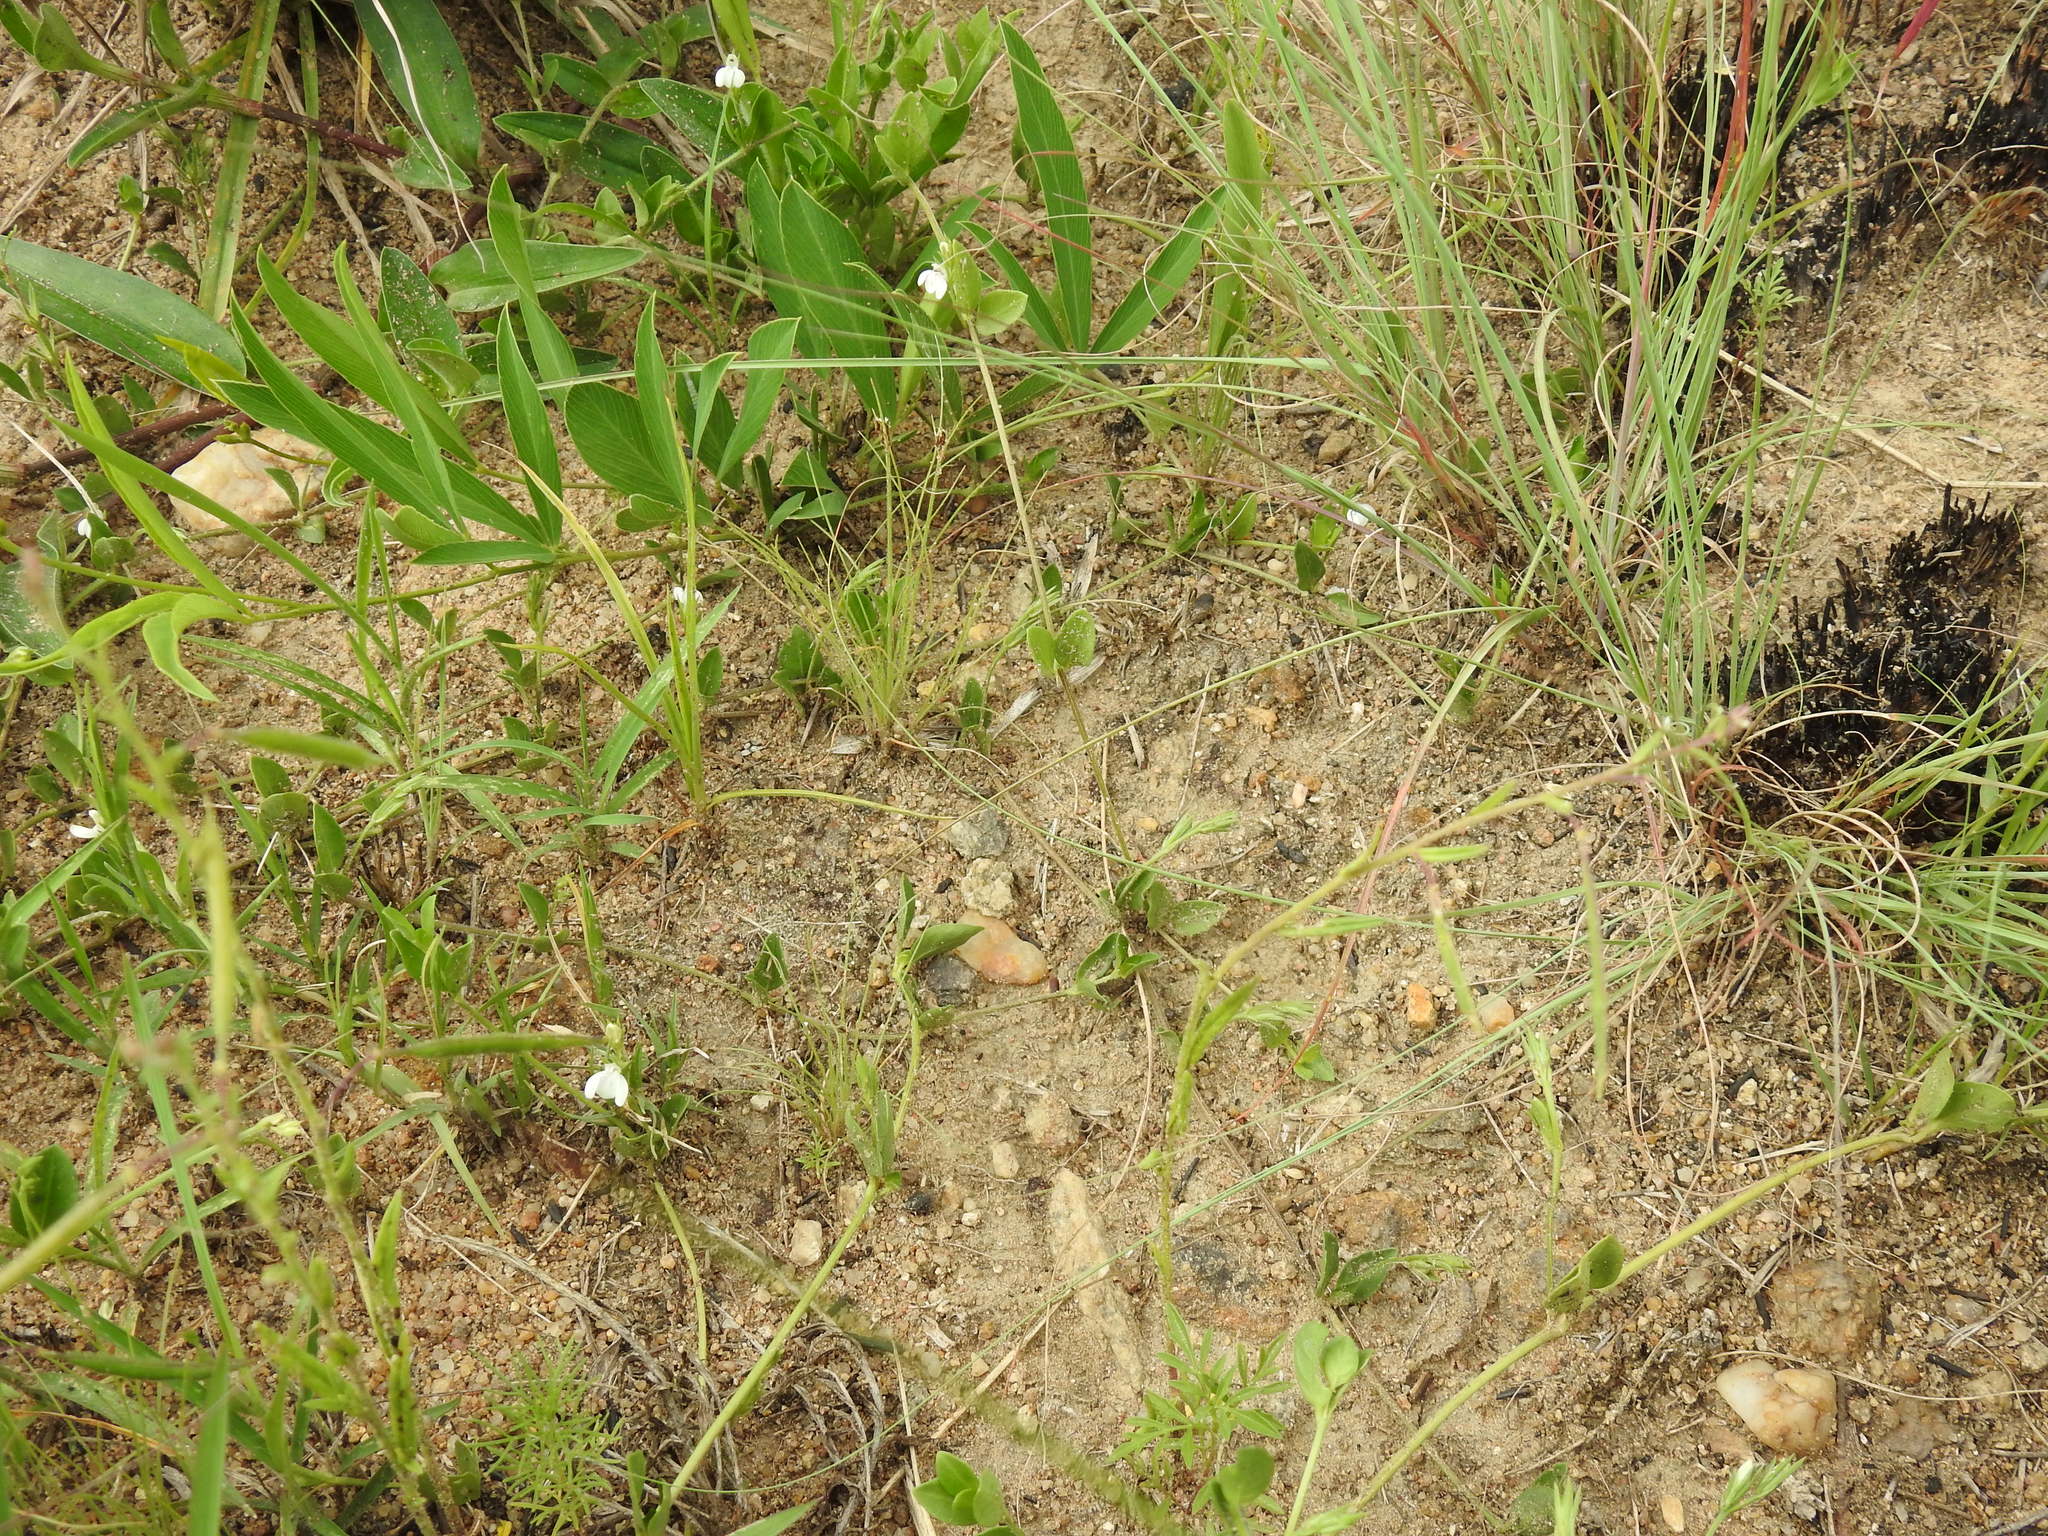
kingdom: Plantae
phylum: Tracheophyta
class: Magnoliopsida
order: Lamiales
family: Acanthaceae
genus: Justicia
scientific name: Justicia anagalloides
